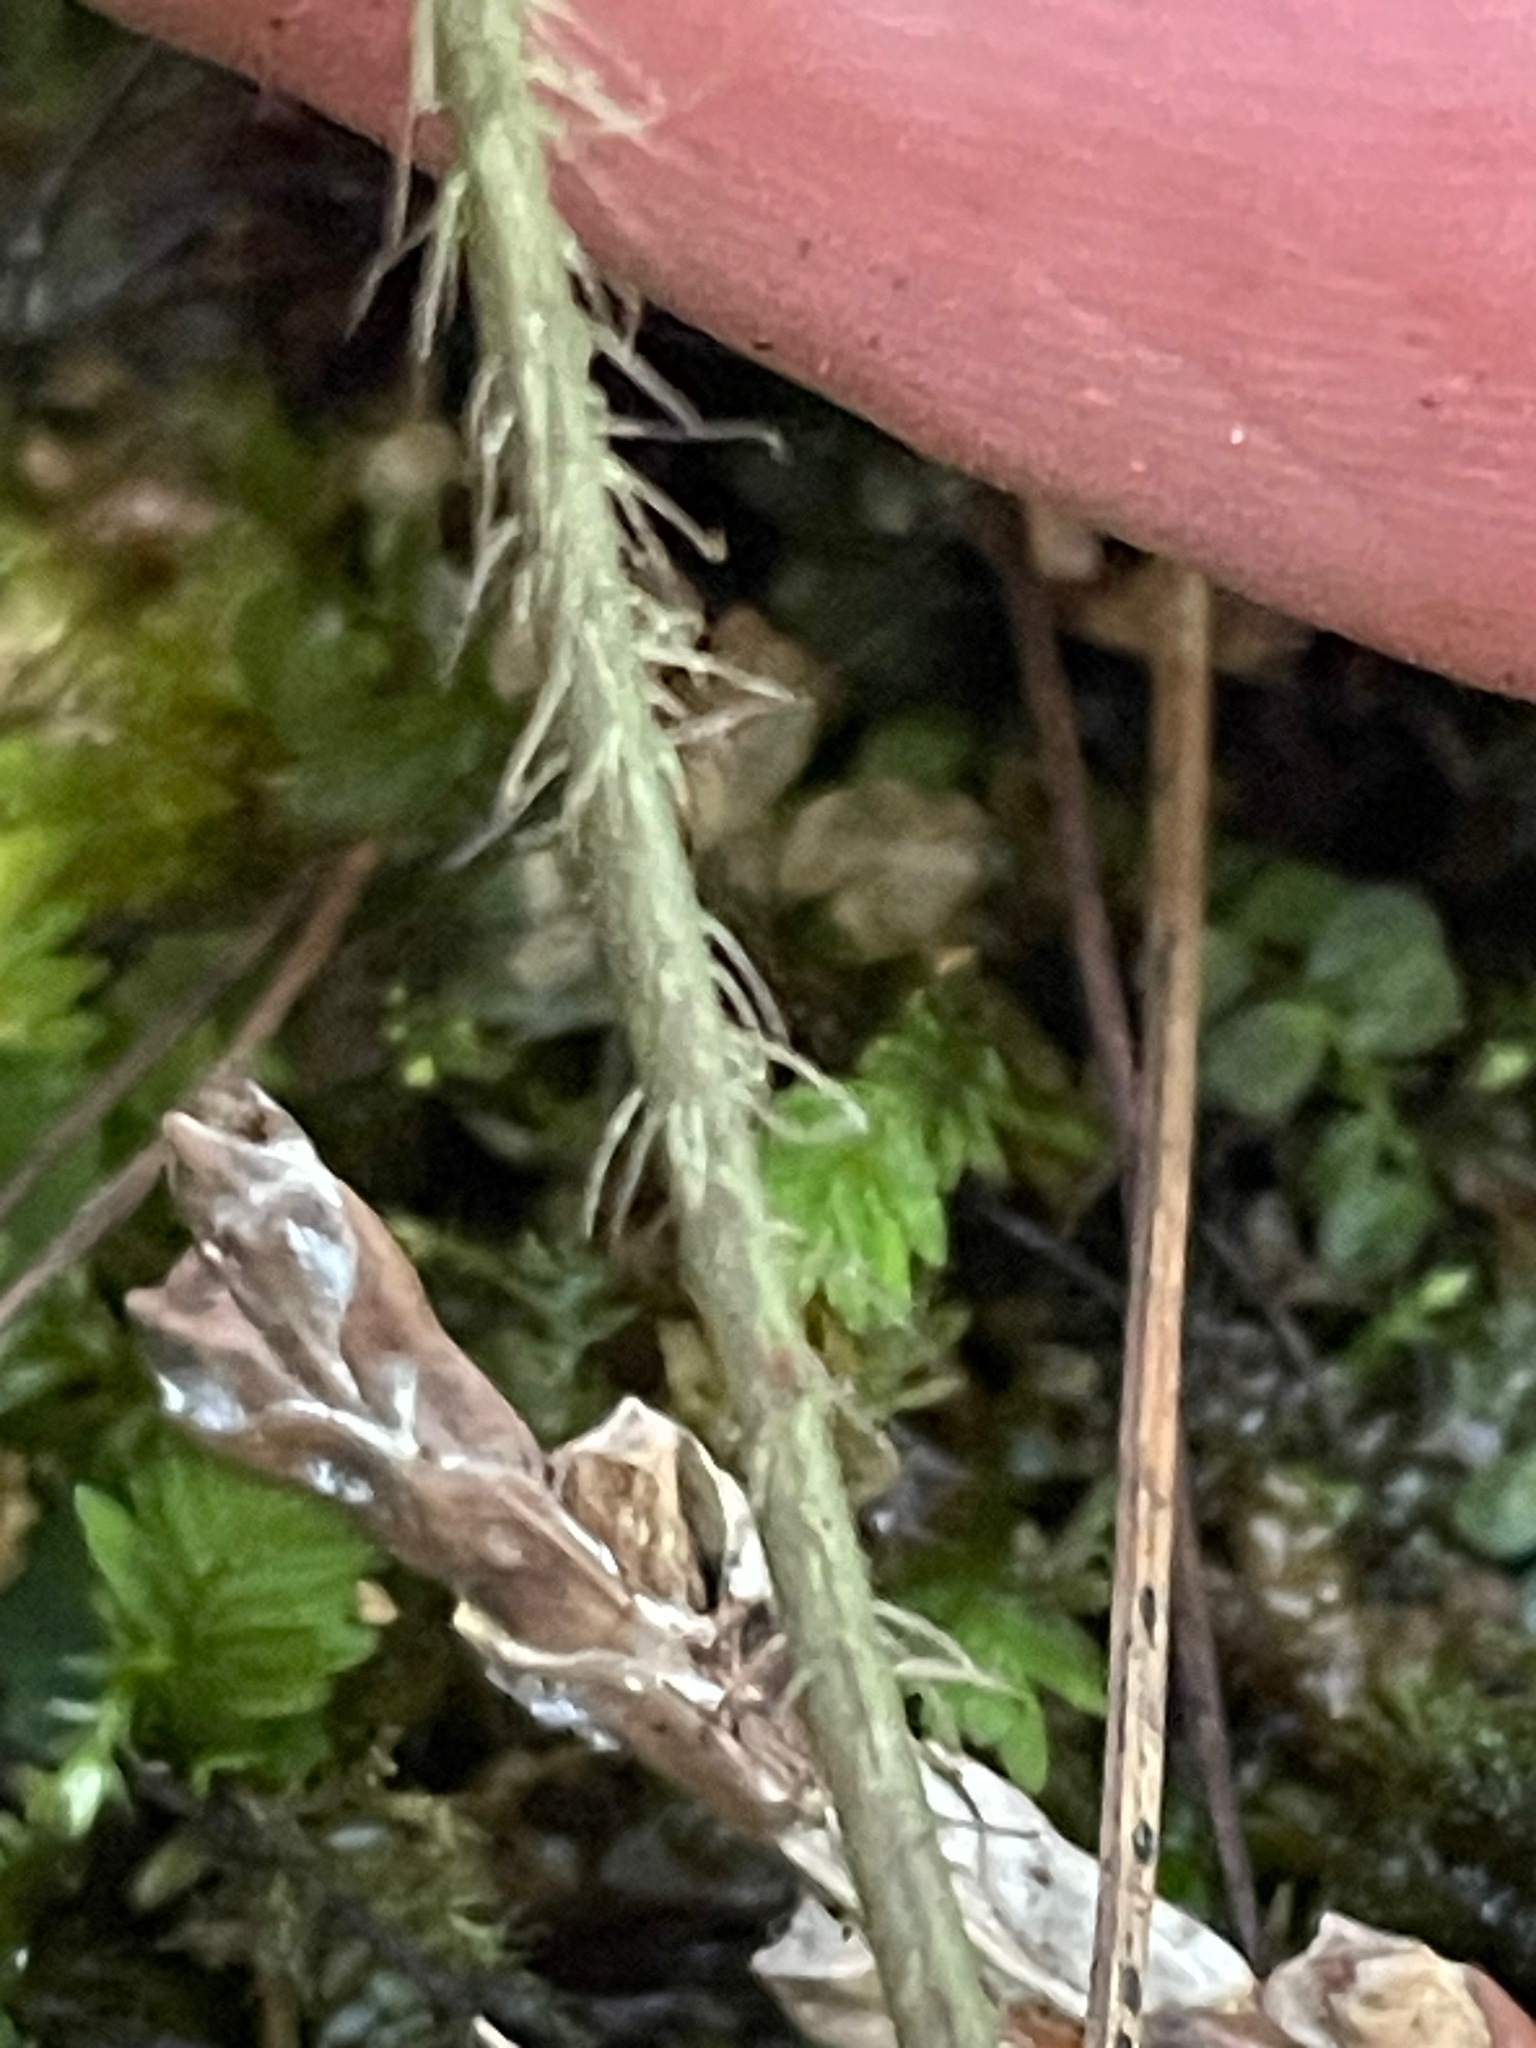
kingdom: Plantae
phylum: Tracheophyta
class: Magnoliopsida
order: Saxifragales
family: Saxifragaceae
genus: Mitella
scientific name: Mitella diphylla
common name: Coolwort
